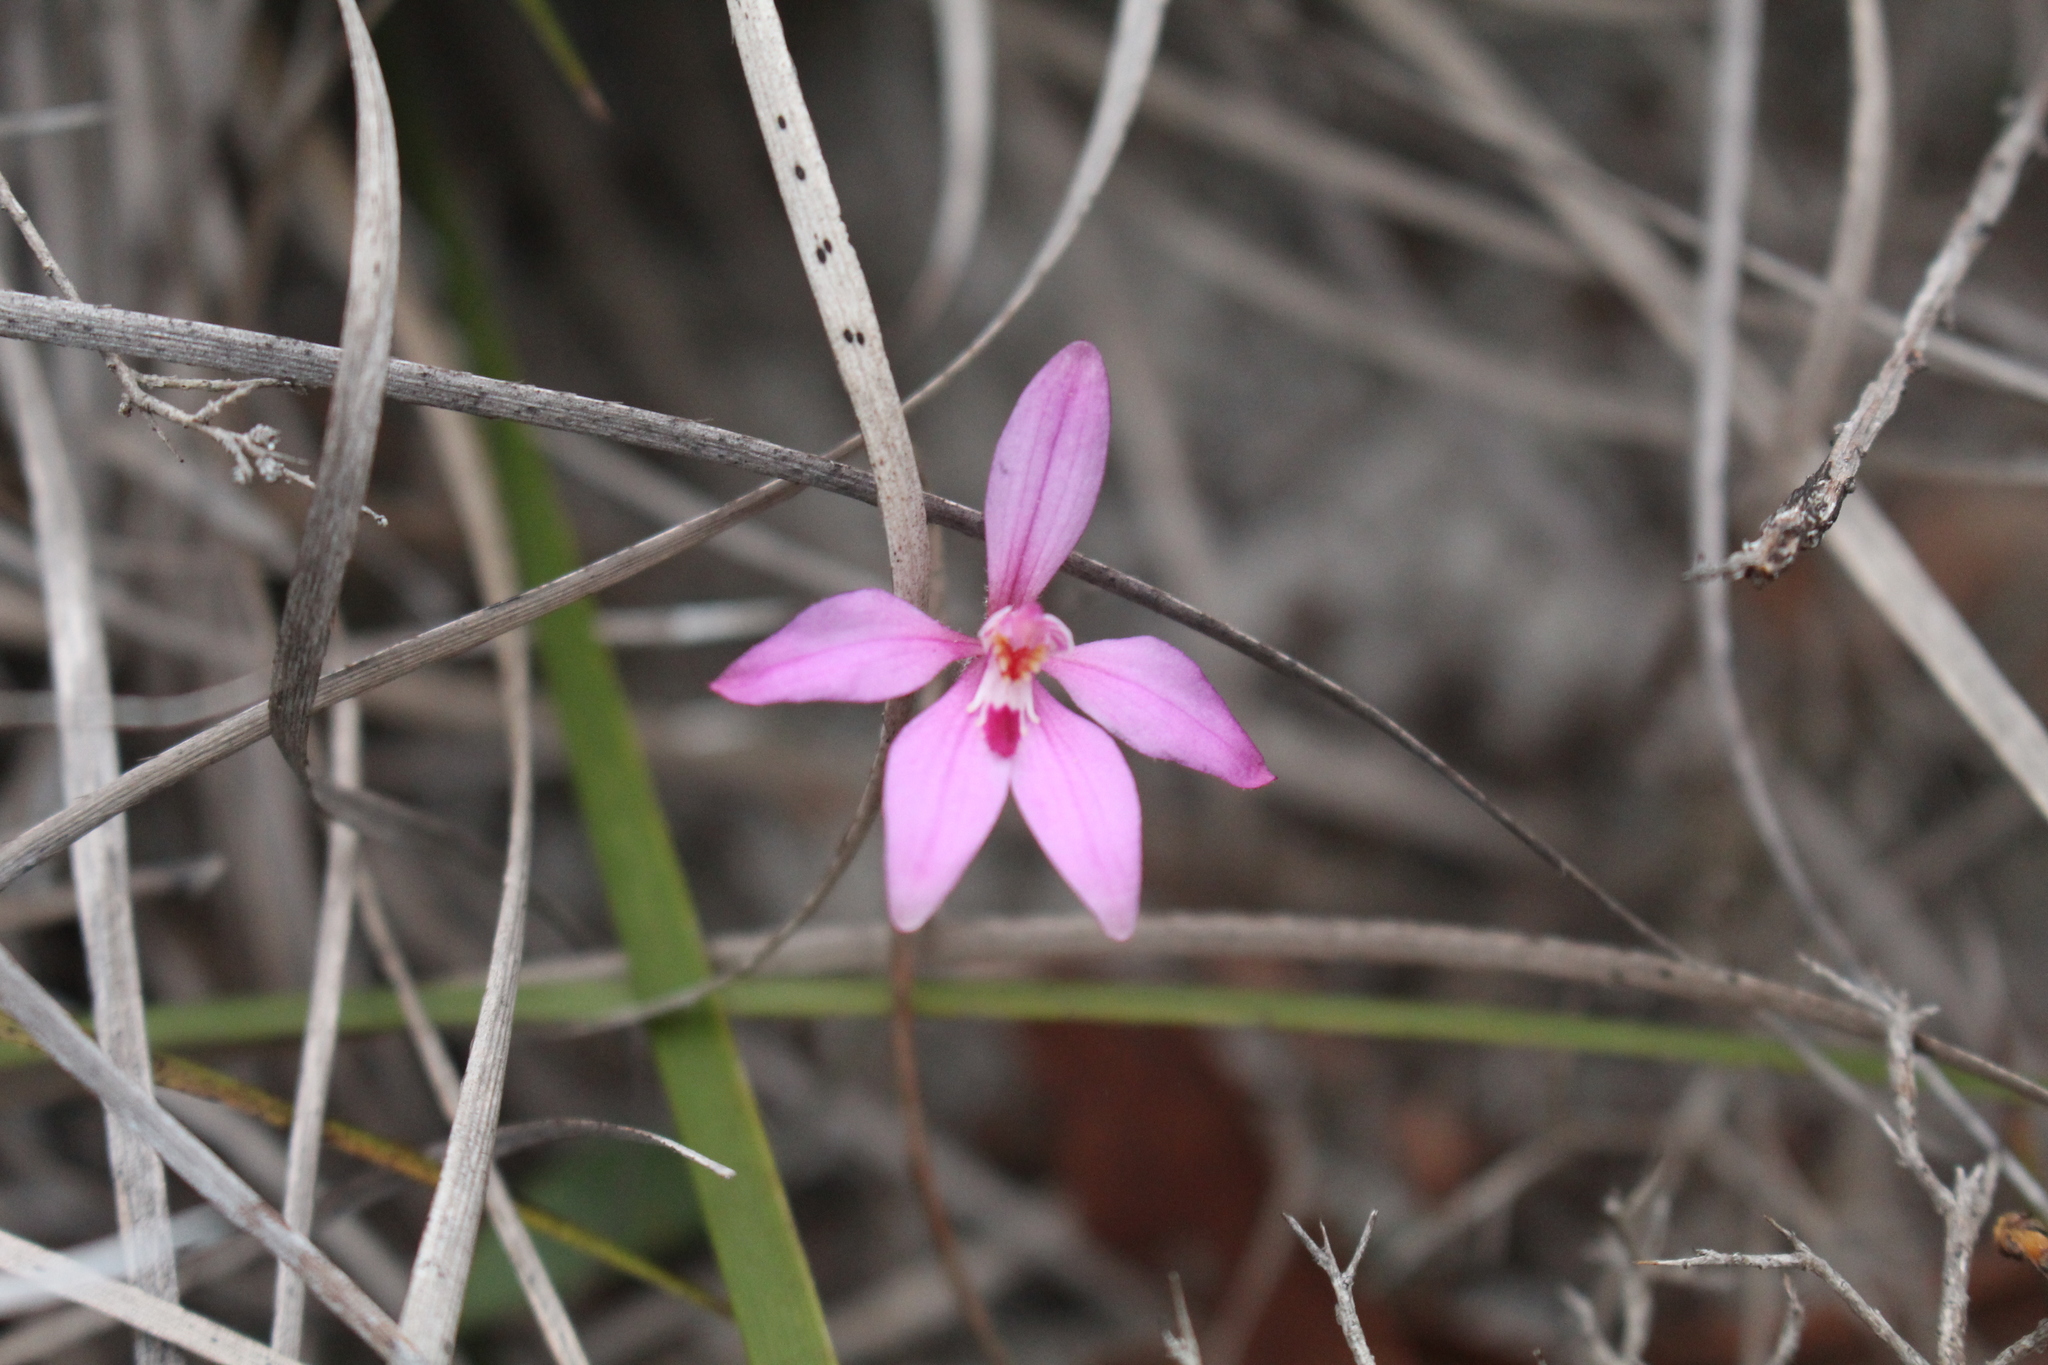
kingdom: Plantae
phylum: Tracheophyta
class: Liliopsida
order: Asparagales
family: Orchidaceae
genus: Caladenia
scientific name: Caladenia reptans
